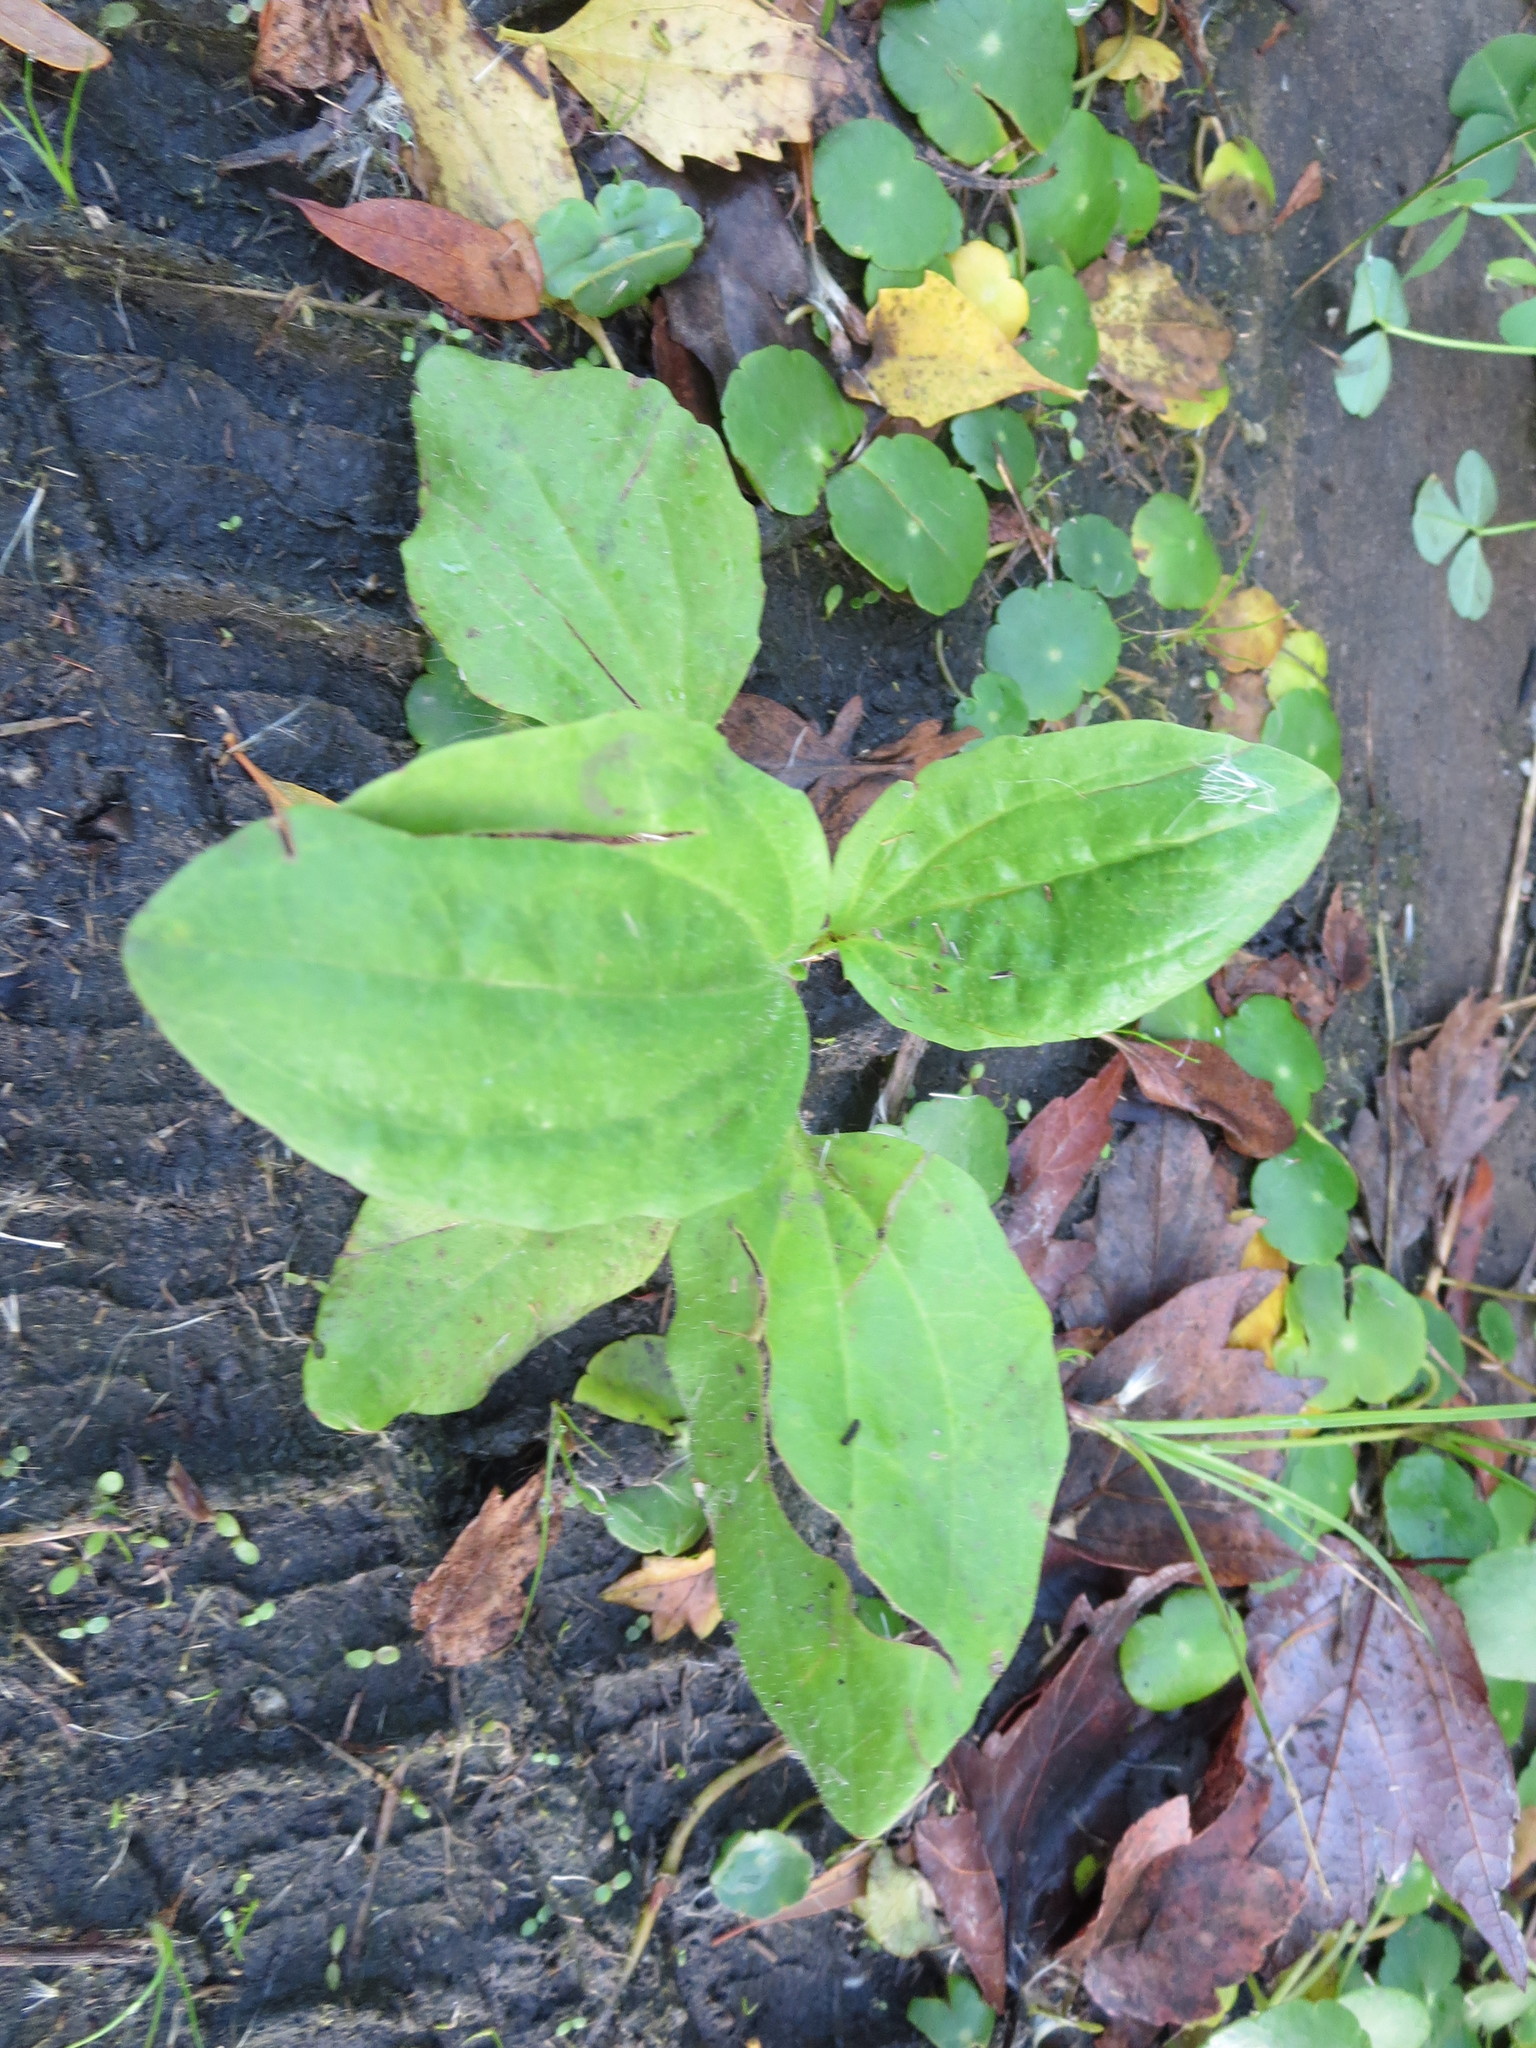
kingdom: Plantae
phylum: Tracheophyta
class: Magnoliopsida
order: Lamiales
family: Plantaginaceae
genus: Plantago
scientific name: Plantago major
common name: Common plantain
